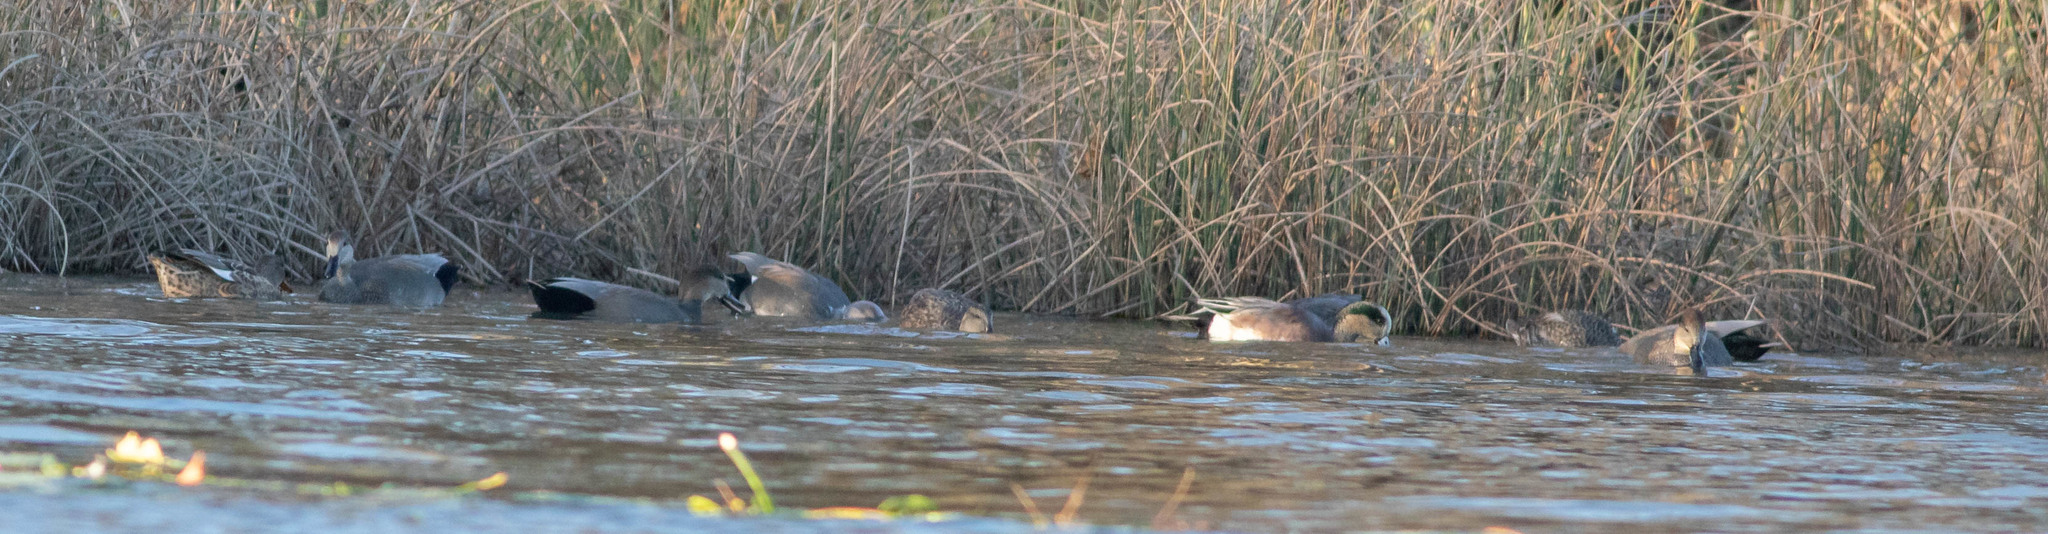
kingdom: Animalia
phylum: Chordata
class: Aves
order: Anseriformes
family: Anatidae
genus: Mareca
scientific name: Mareca strepera
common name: Gadwall
